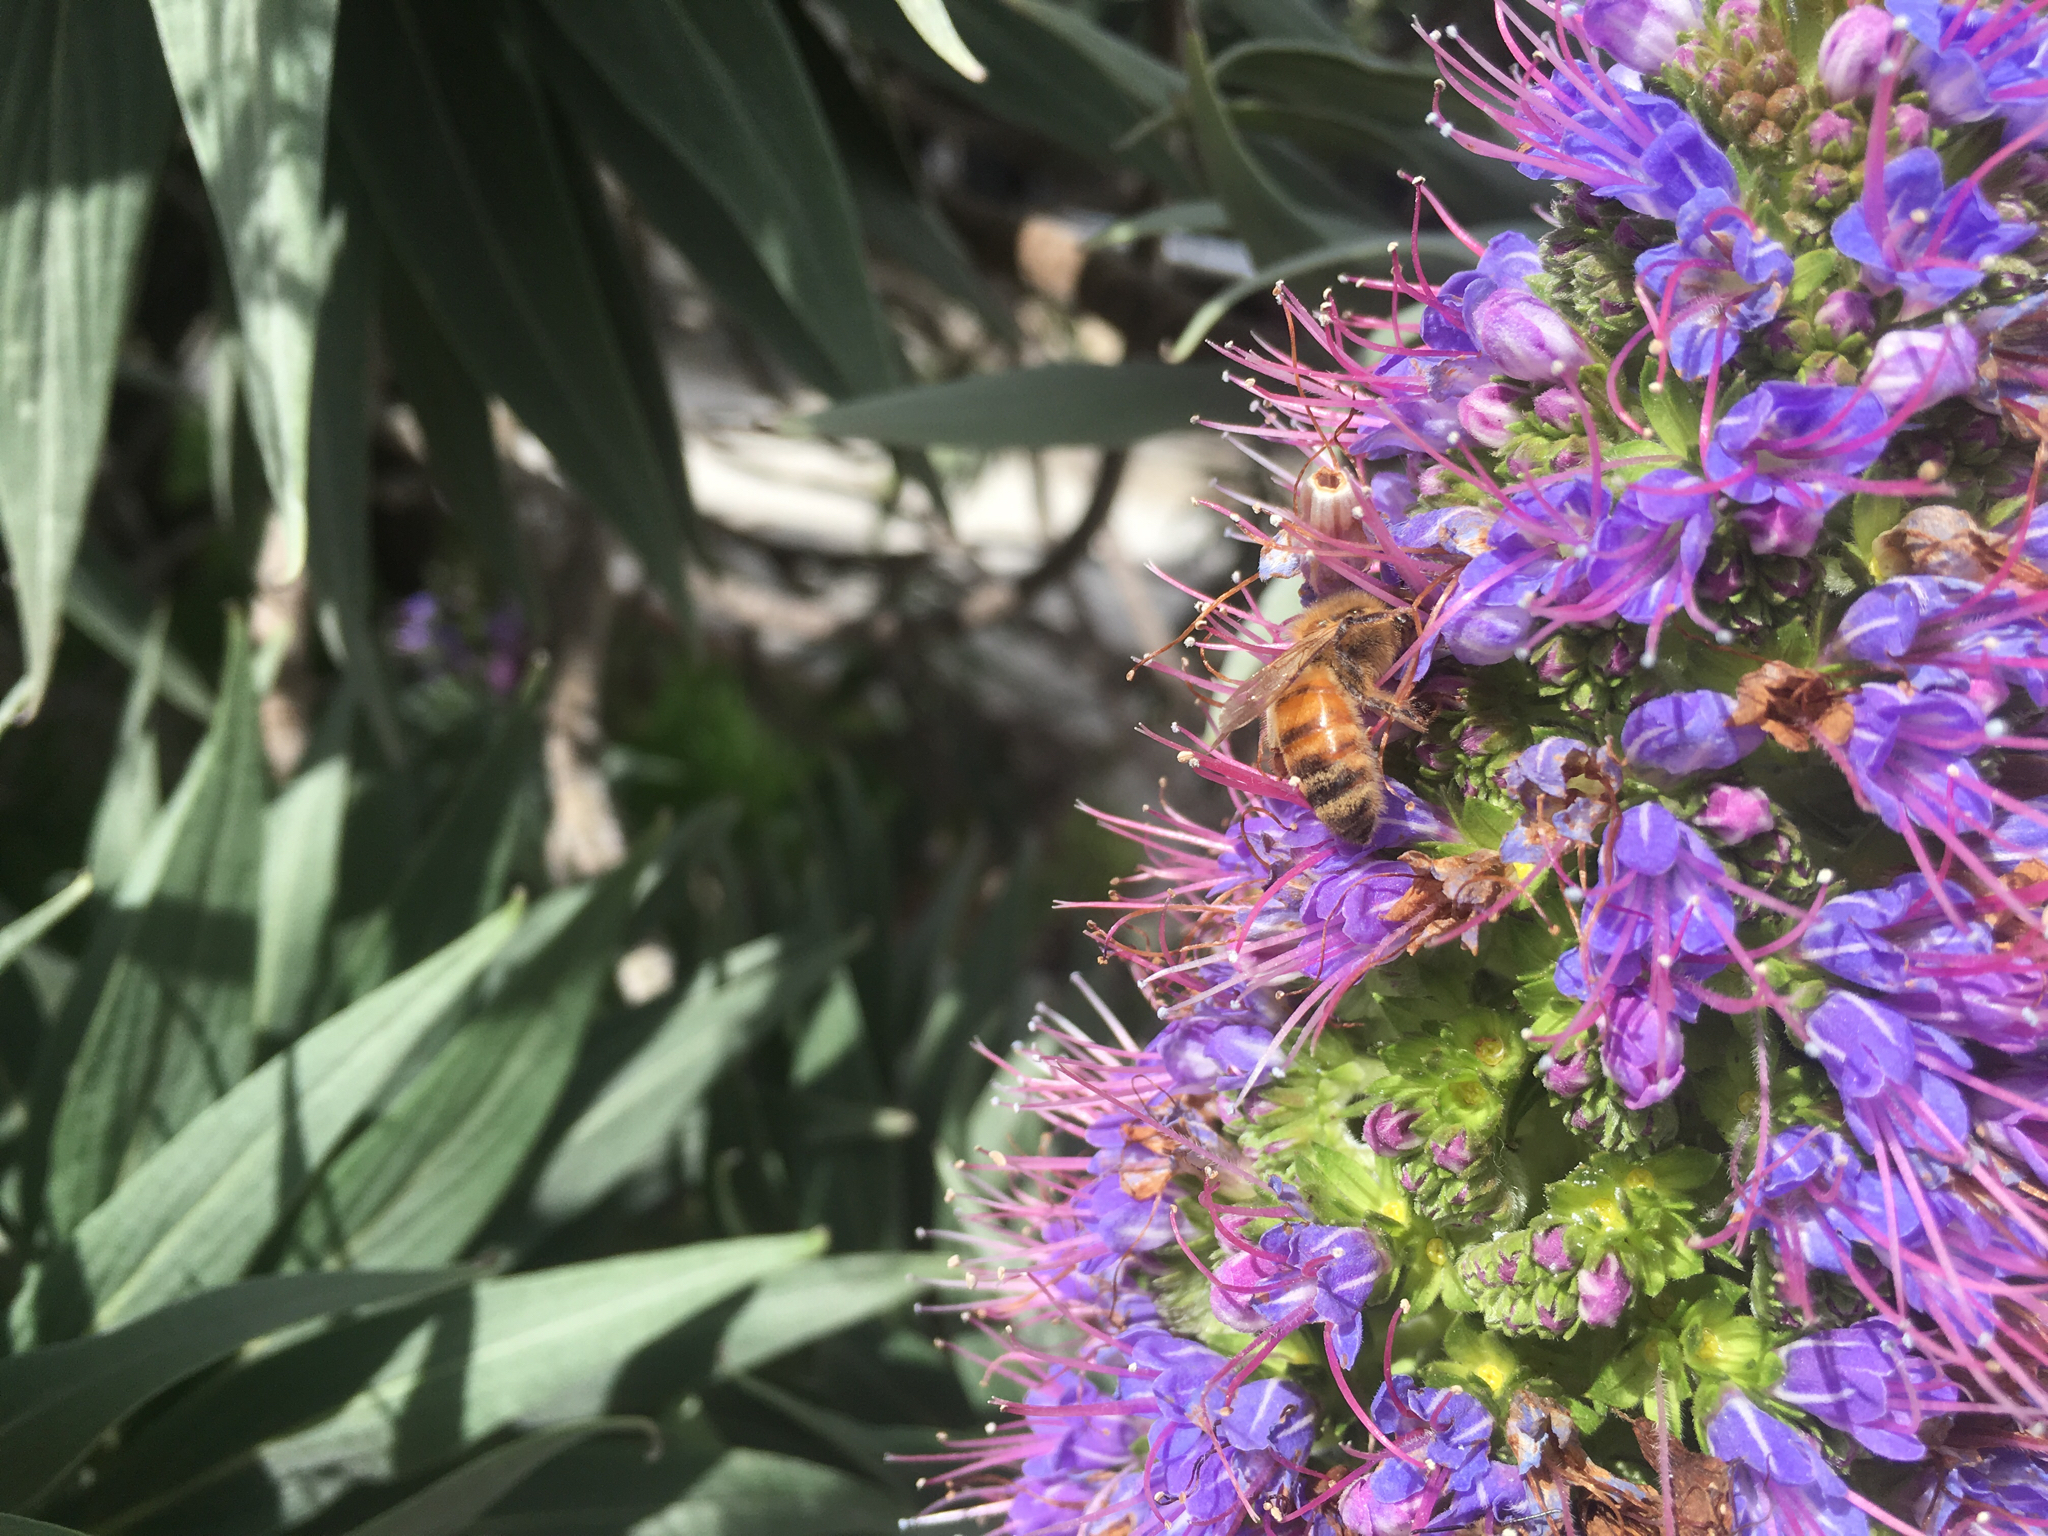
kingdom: Animalia
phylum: Arthropoda
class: Insecta
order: Hymenoptera
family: Apidae
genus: Apis
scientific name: Apis mellifera
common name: Honey bee
